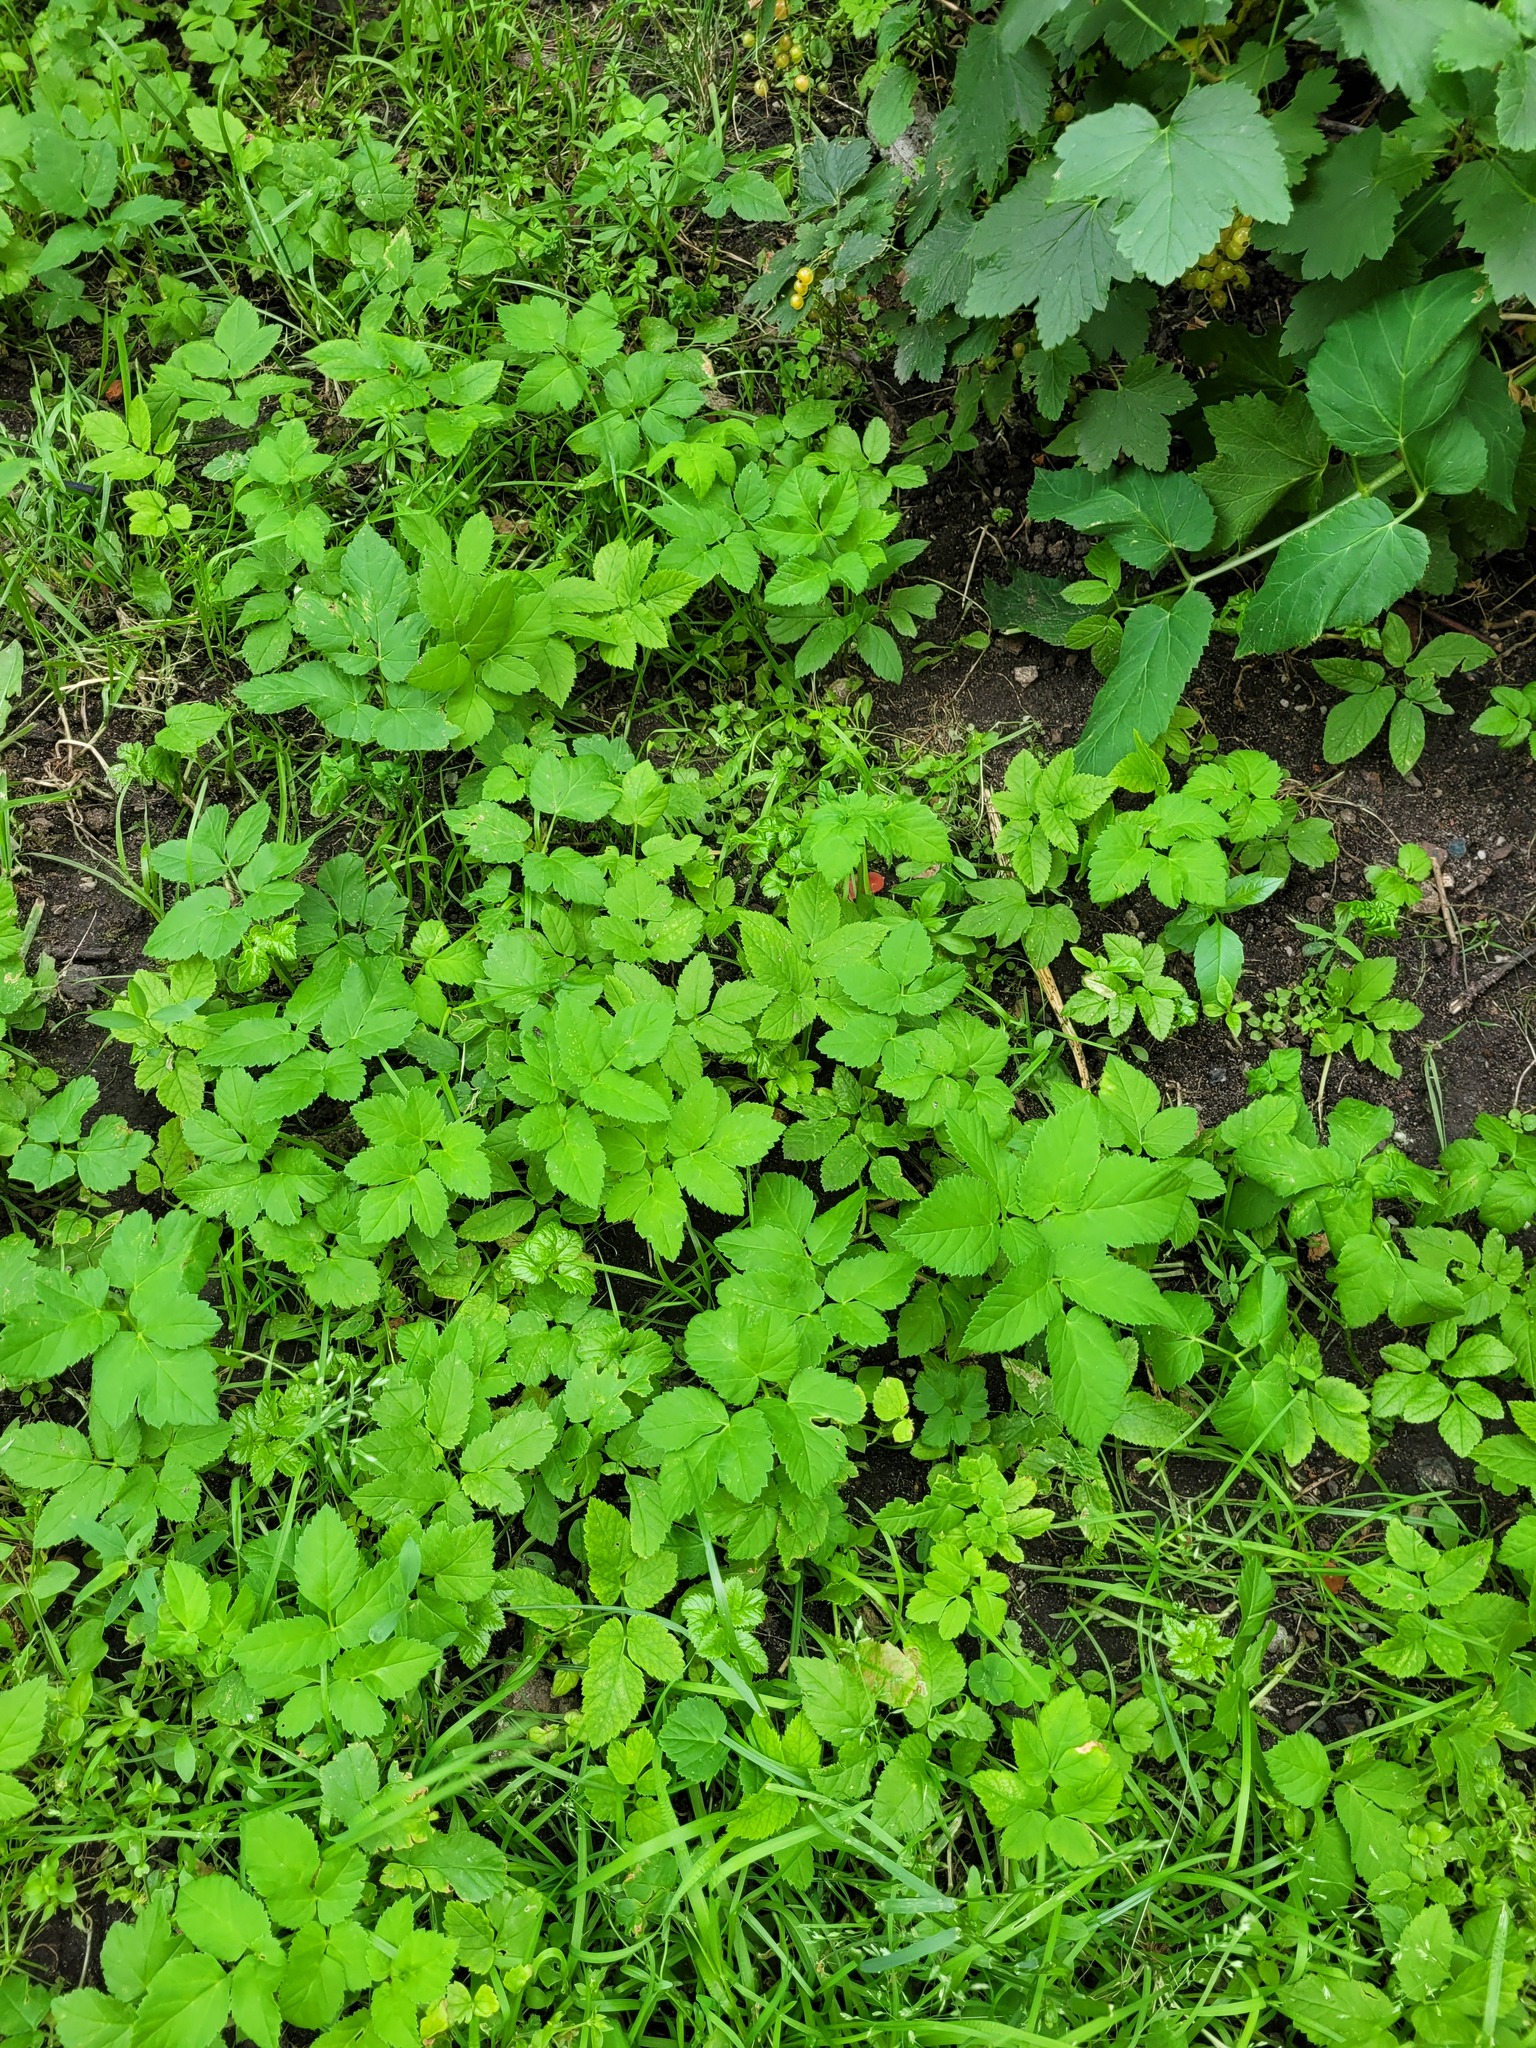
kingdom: Plantae
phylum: Tracheophyta
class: Magnoliopsida
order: Apiales
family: Apiaceae
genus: Aegopodium
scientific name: Aegopodium podagraria
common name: Ground-elder
